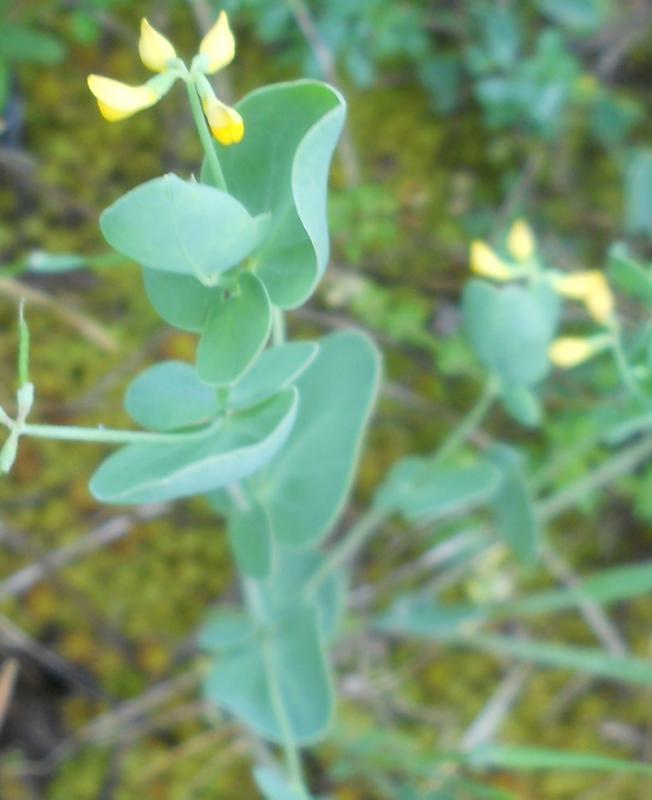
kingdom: Plantae
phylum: Tracheophyta
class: Magnoliopsida
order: Fabales
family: Fabaceae
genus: Coronilla
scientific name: Coronilla scorpioides
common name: Annual scorpion-vetch
